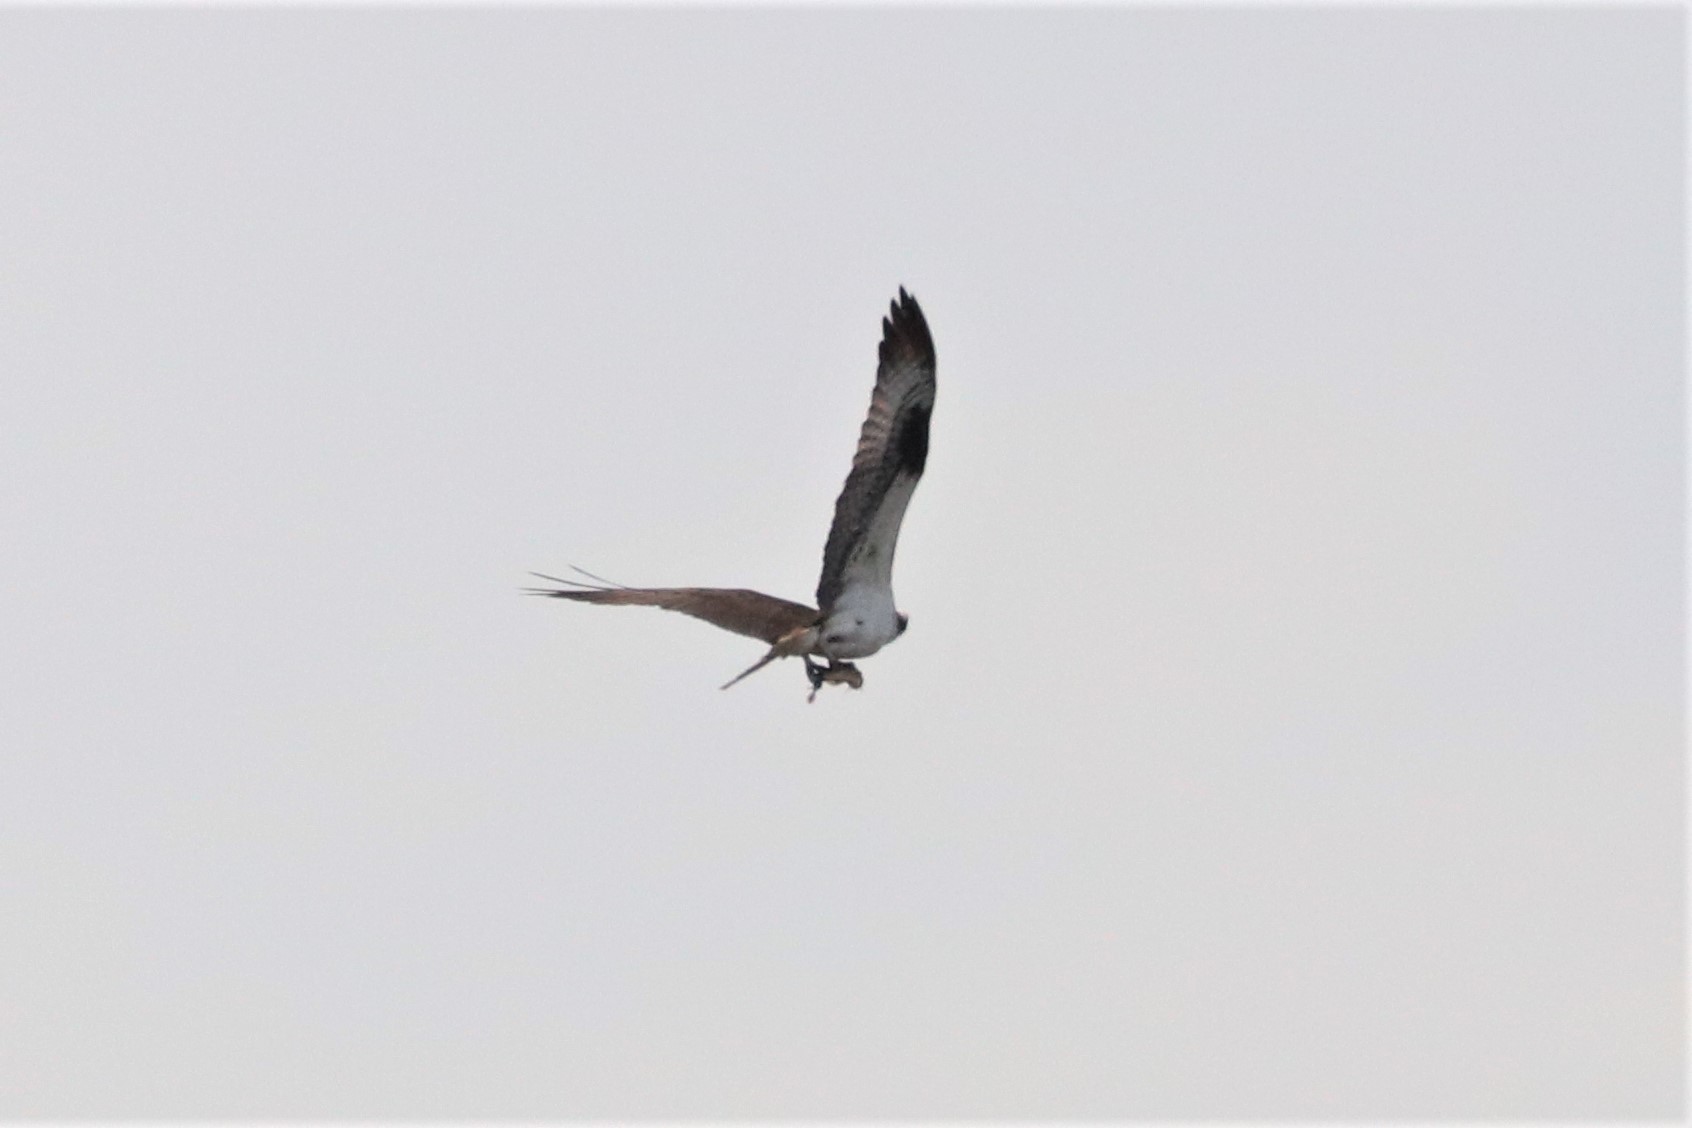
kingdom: Animalia
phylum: Chordata
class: Aves
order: Accipitriformes
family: Pandionidae
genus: Pandion
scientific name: Pandion haliaetus
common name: Osprey
